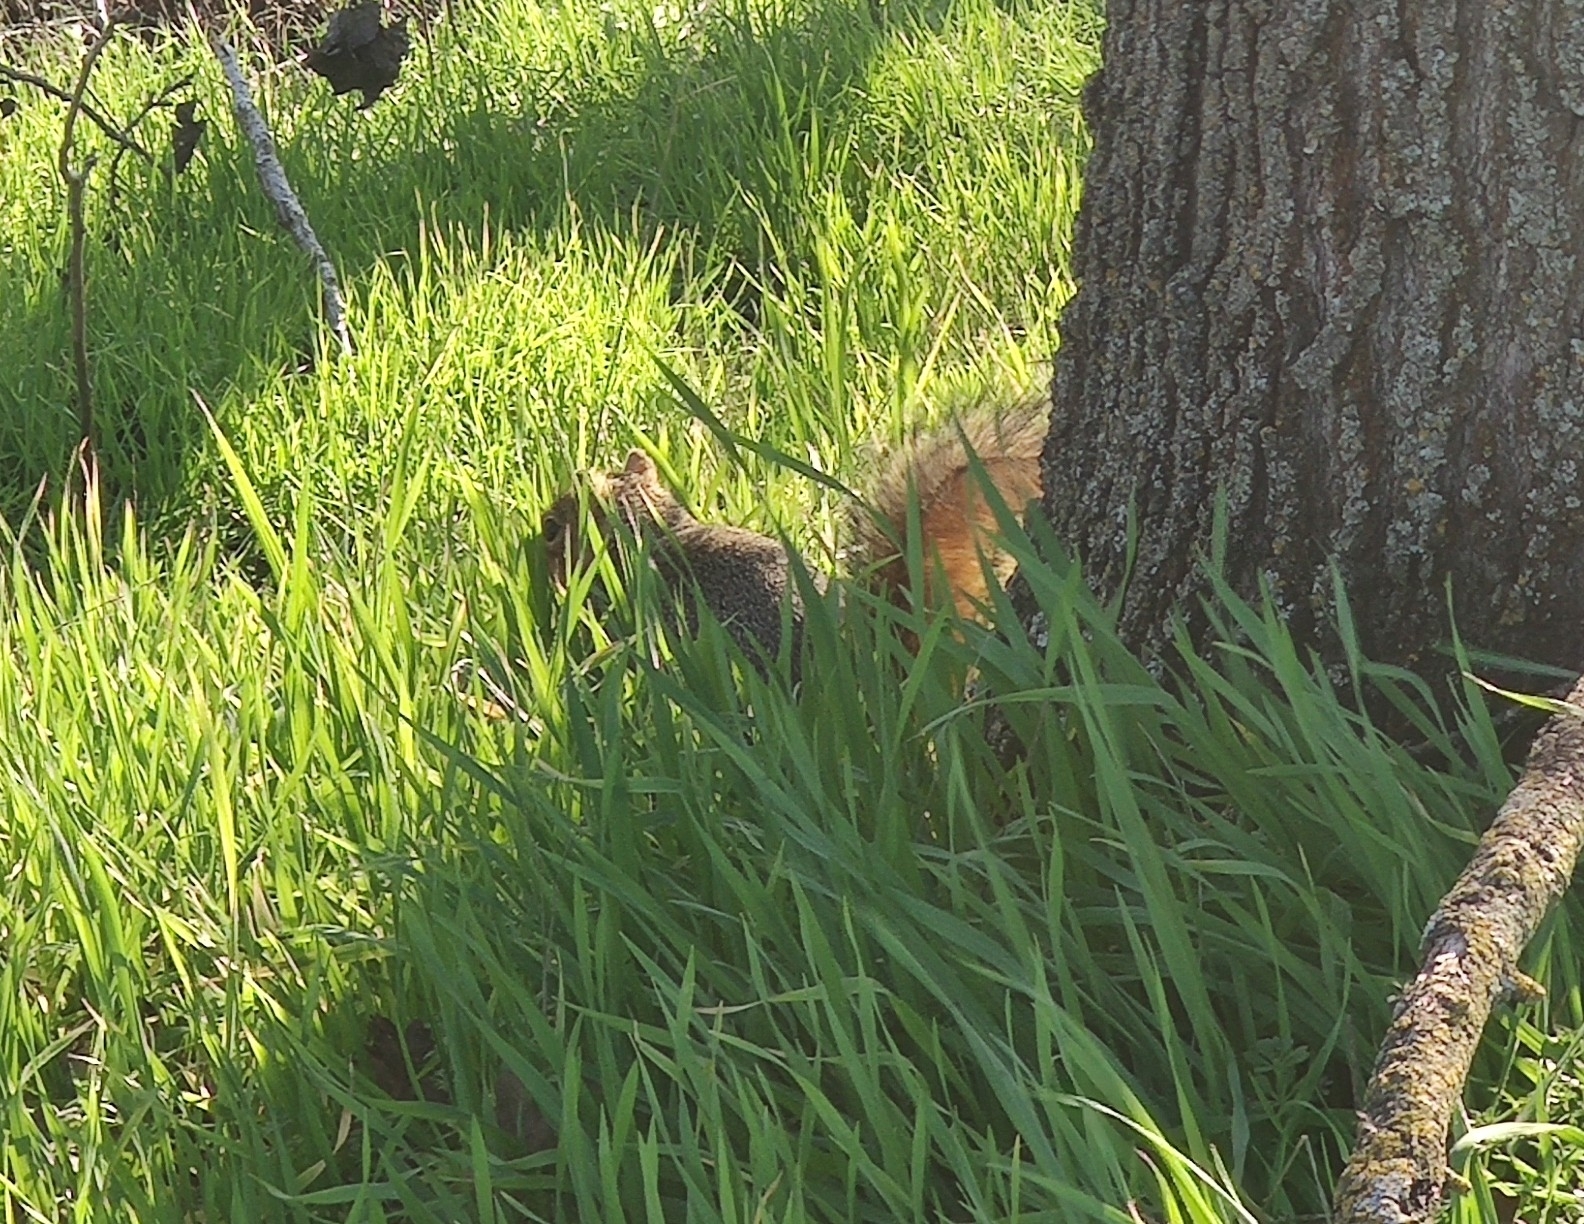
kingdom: Animalia
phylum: Chordata
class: Mammalia
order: Rodentia
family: Sciuridae
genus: Sciurus
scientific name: Sciurus niger
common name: Fox squirrel
